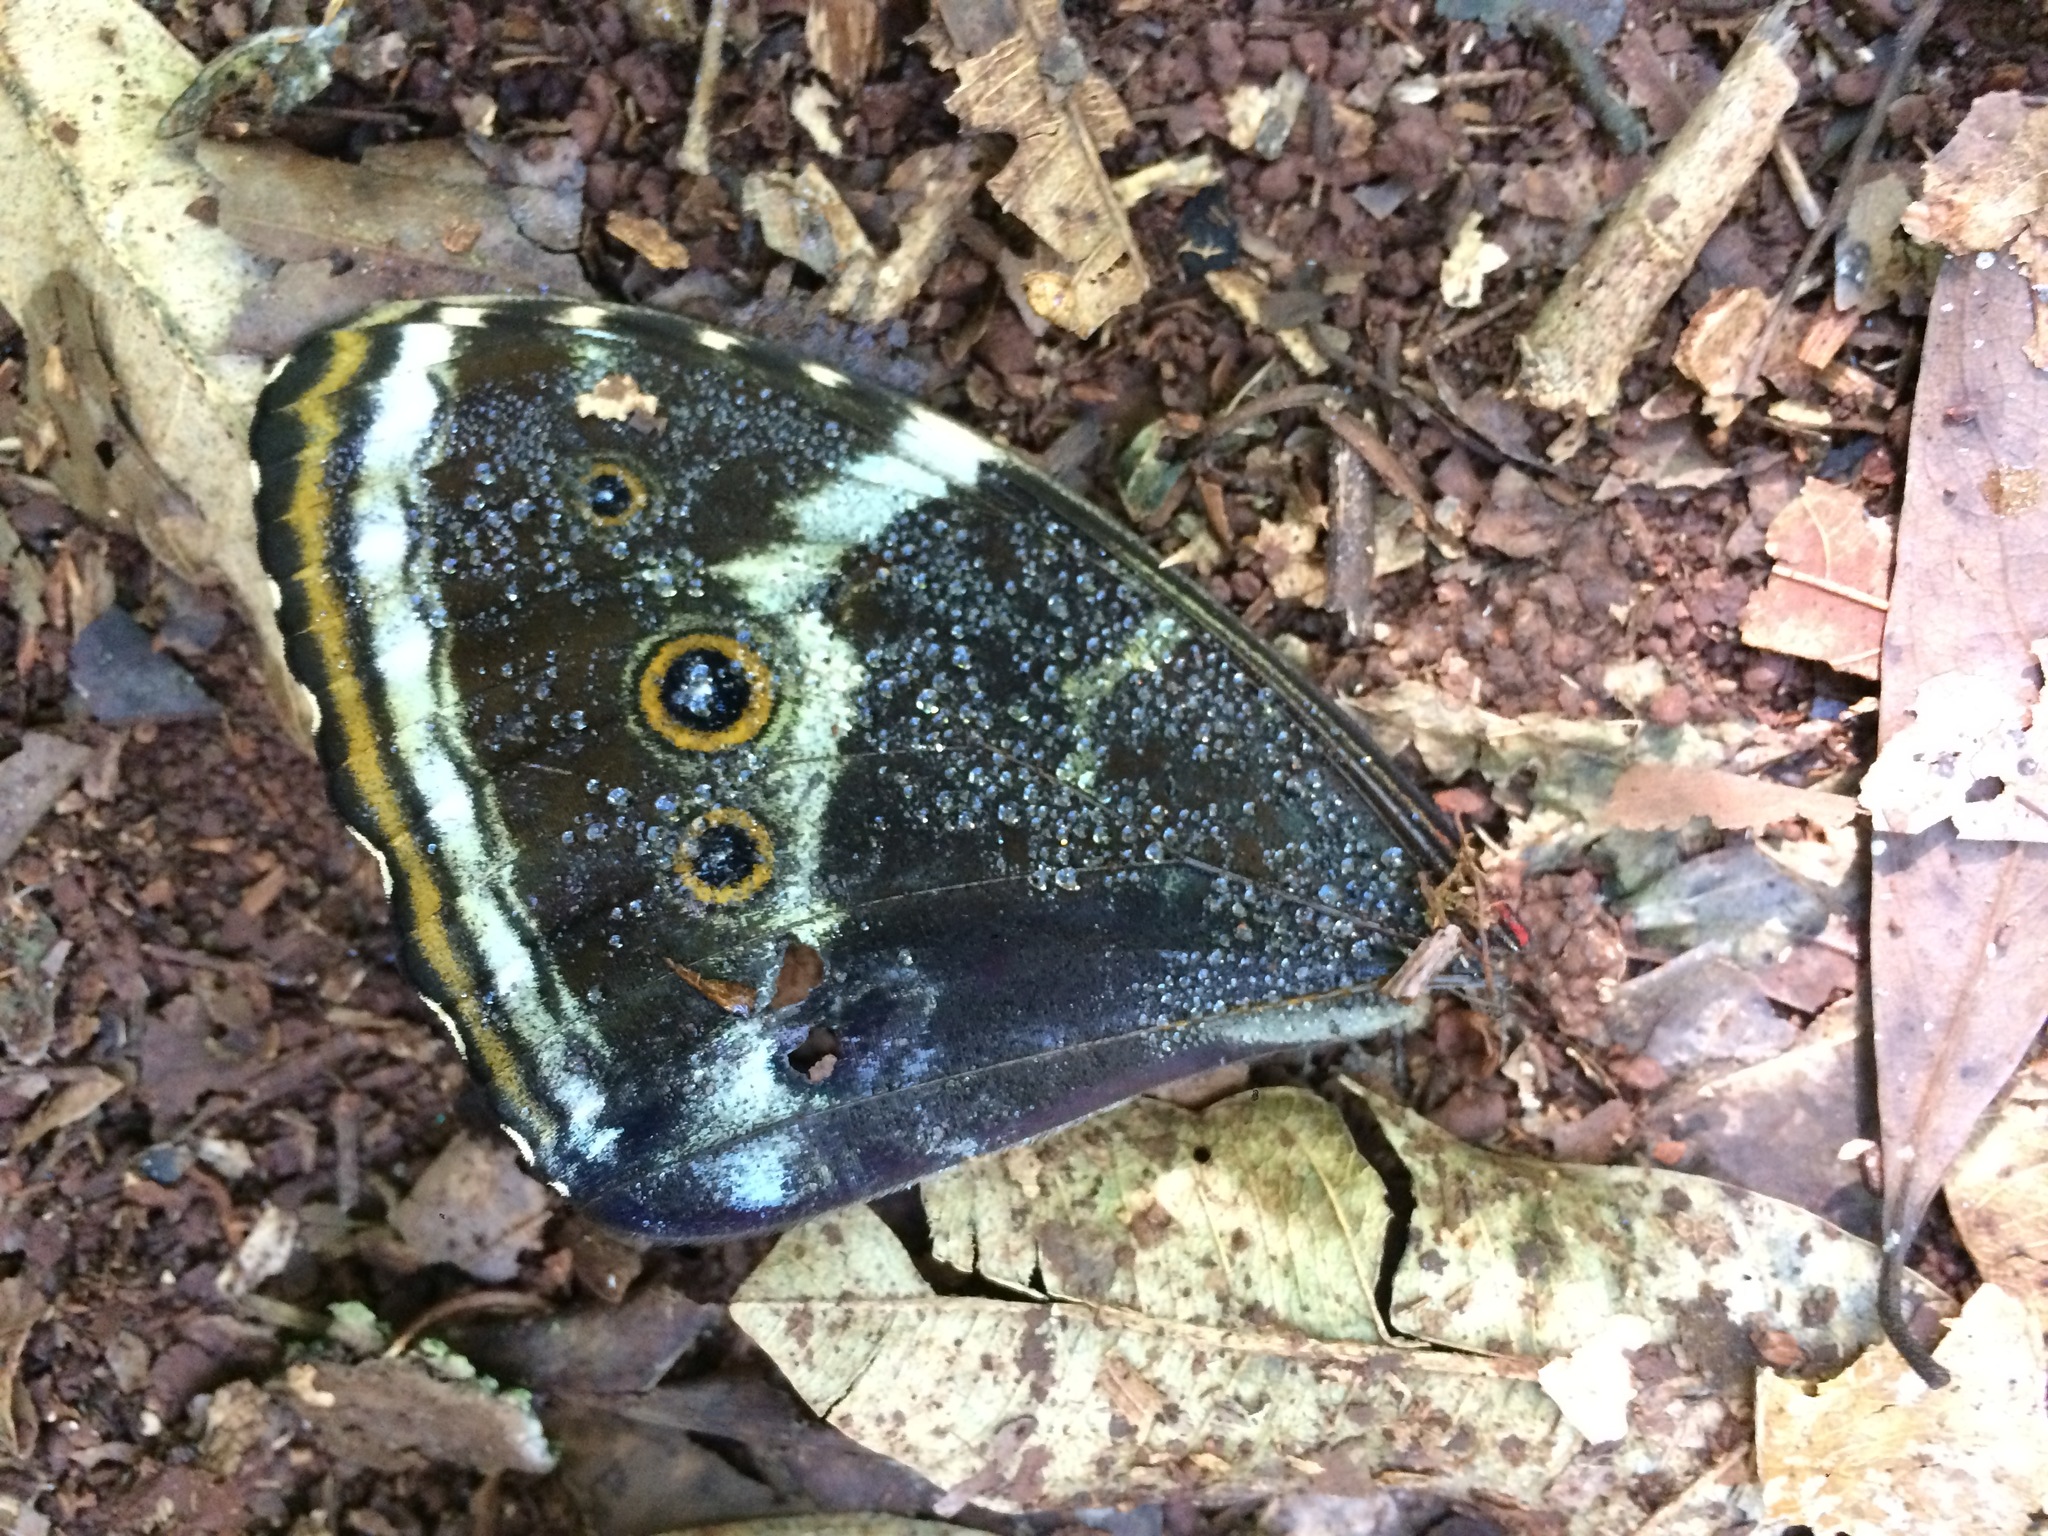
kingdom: Animalia
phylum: Arthropoda
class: Insecta
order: Lepidoptera
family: Nymphalidae
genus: Morpho
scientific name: Morpho helenor
